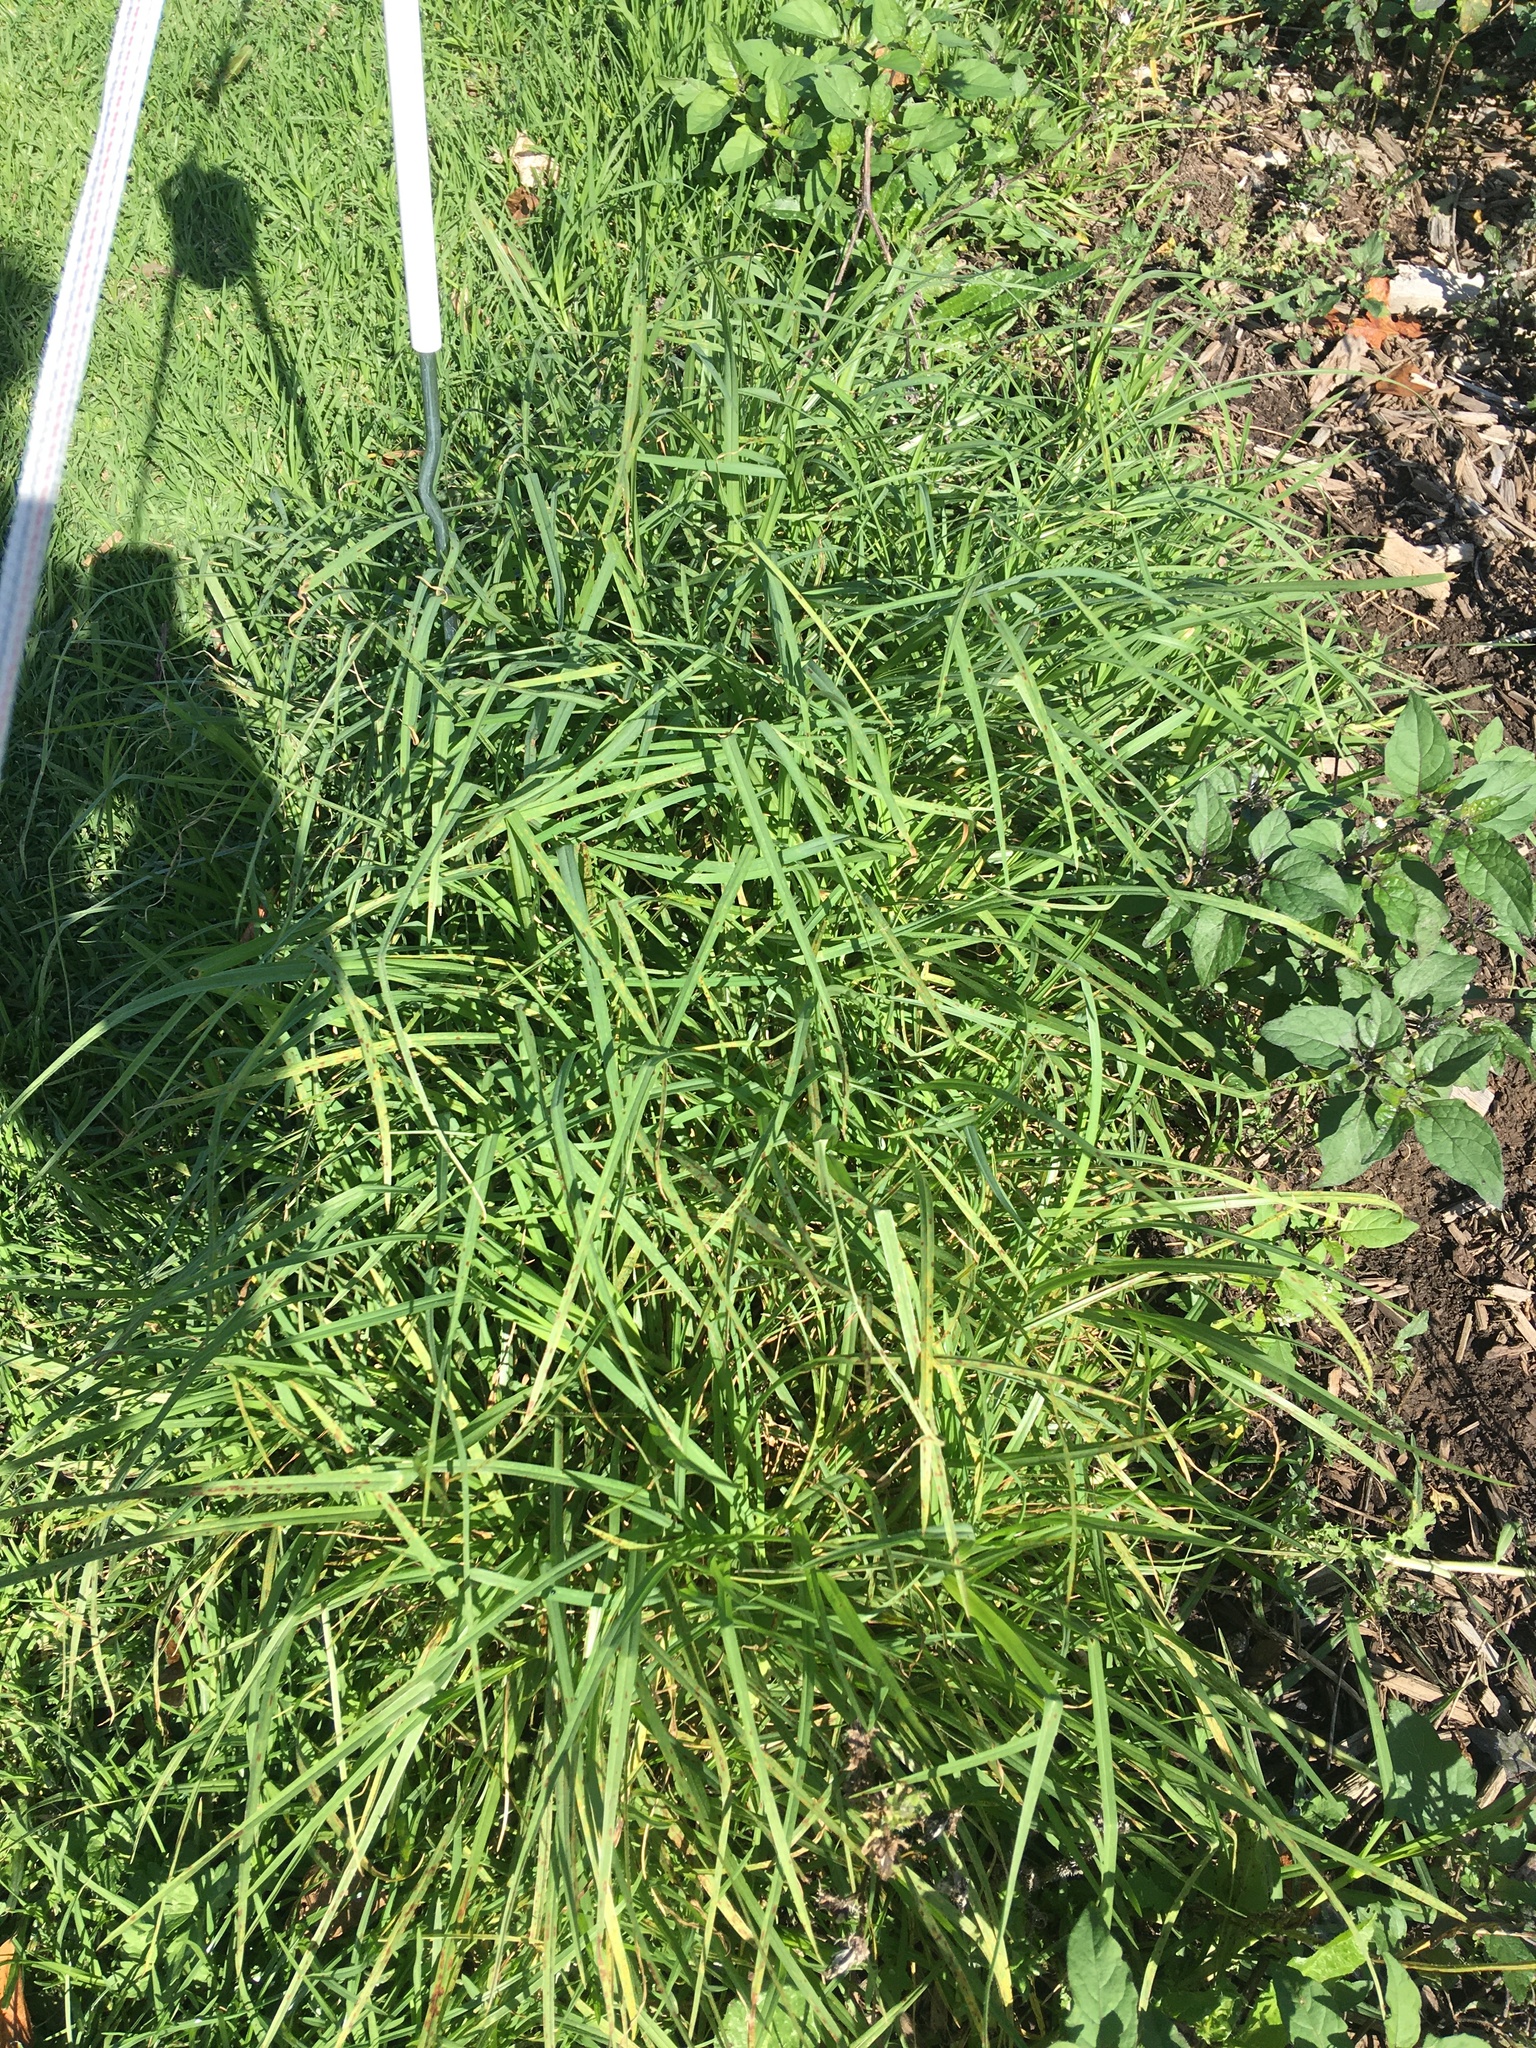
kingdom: Plantae
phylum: Tracheophyta
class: Liliopsida
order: Poales
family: Poaceae
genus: Cenchrus
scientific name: Cenchrus clandestinus
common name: Kikuyugrass
